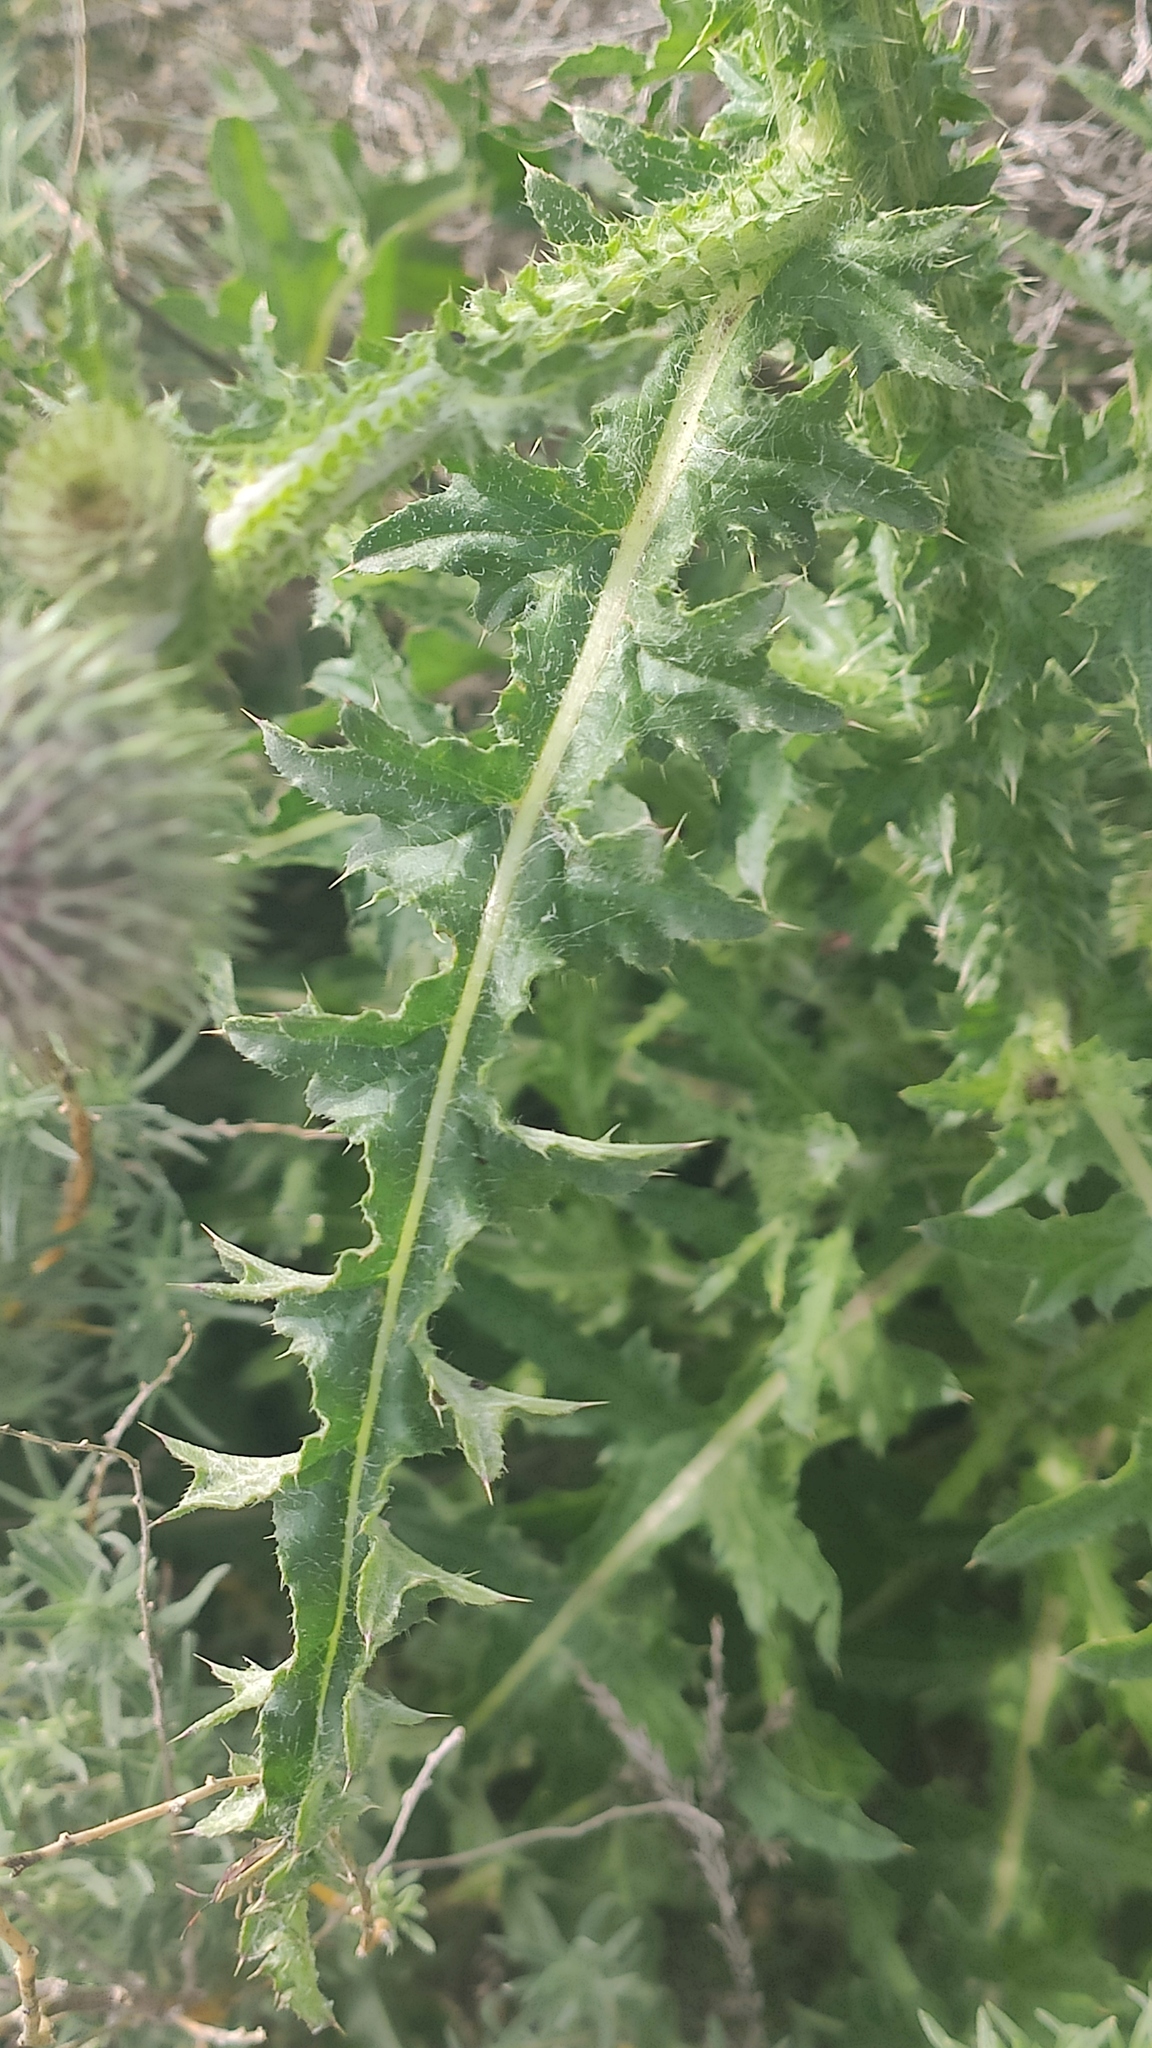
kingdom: Plantae
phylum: Tracheophyta
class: Magnoliopsida
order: Asterales
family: Asteraceae
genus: Carduus
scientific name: Carduus uncinatus
